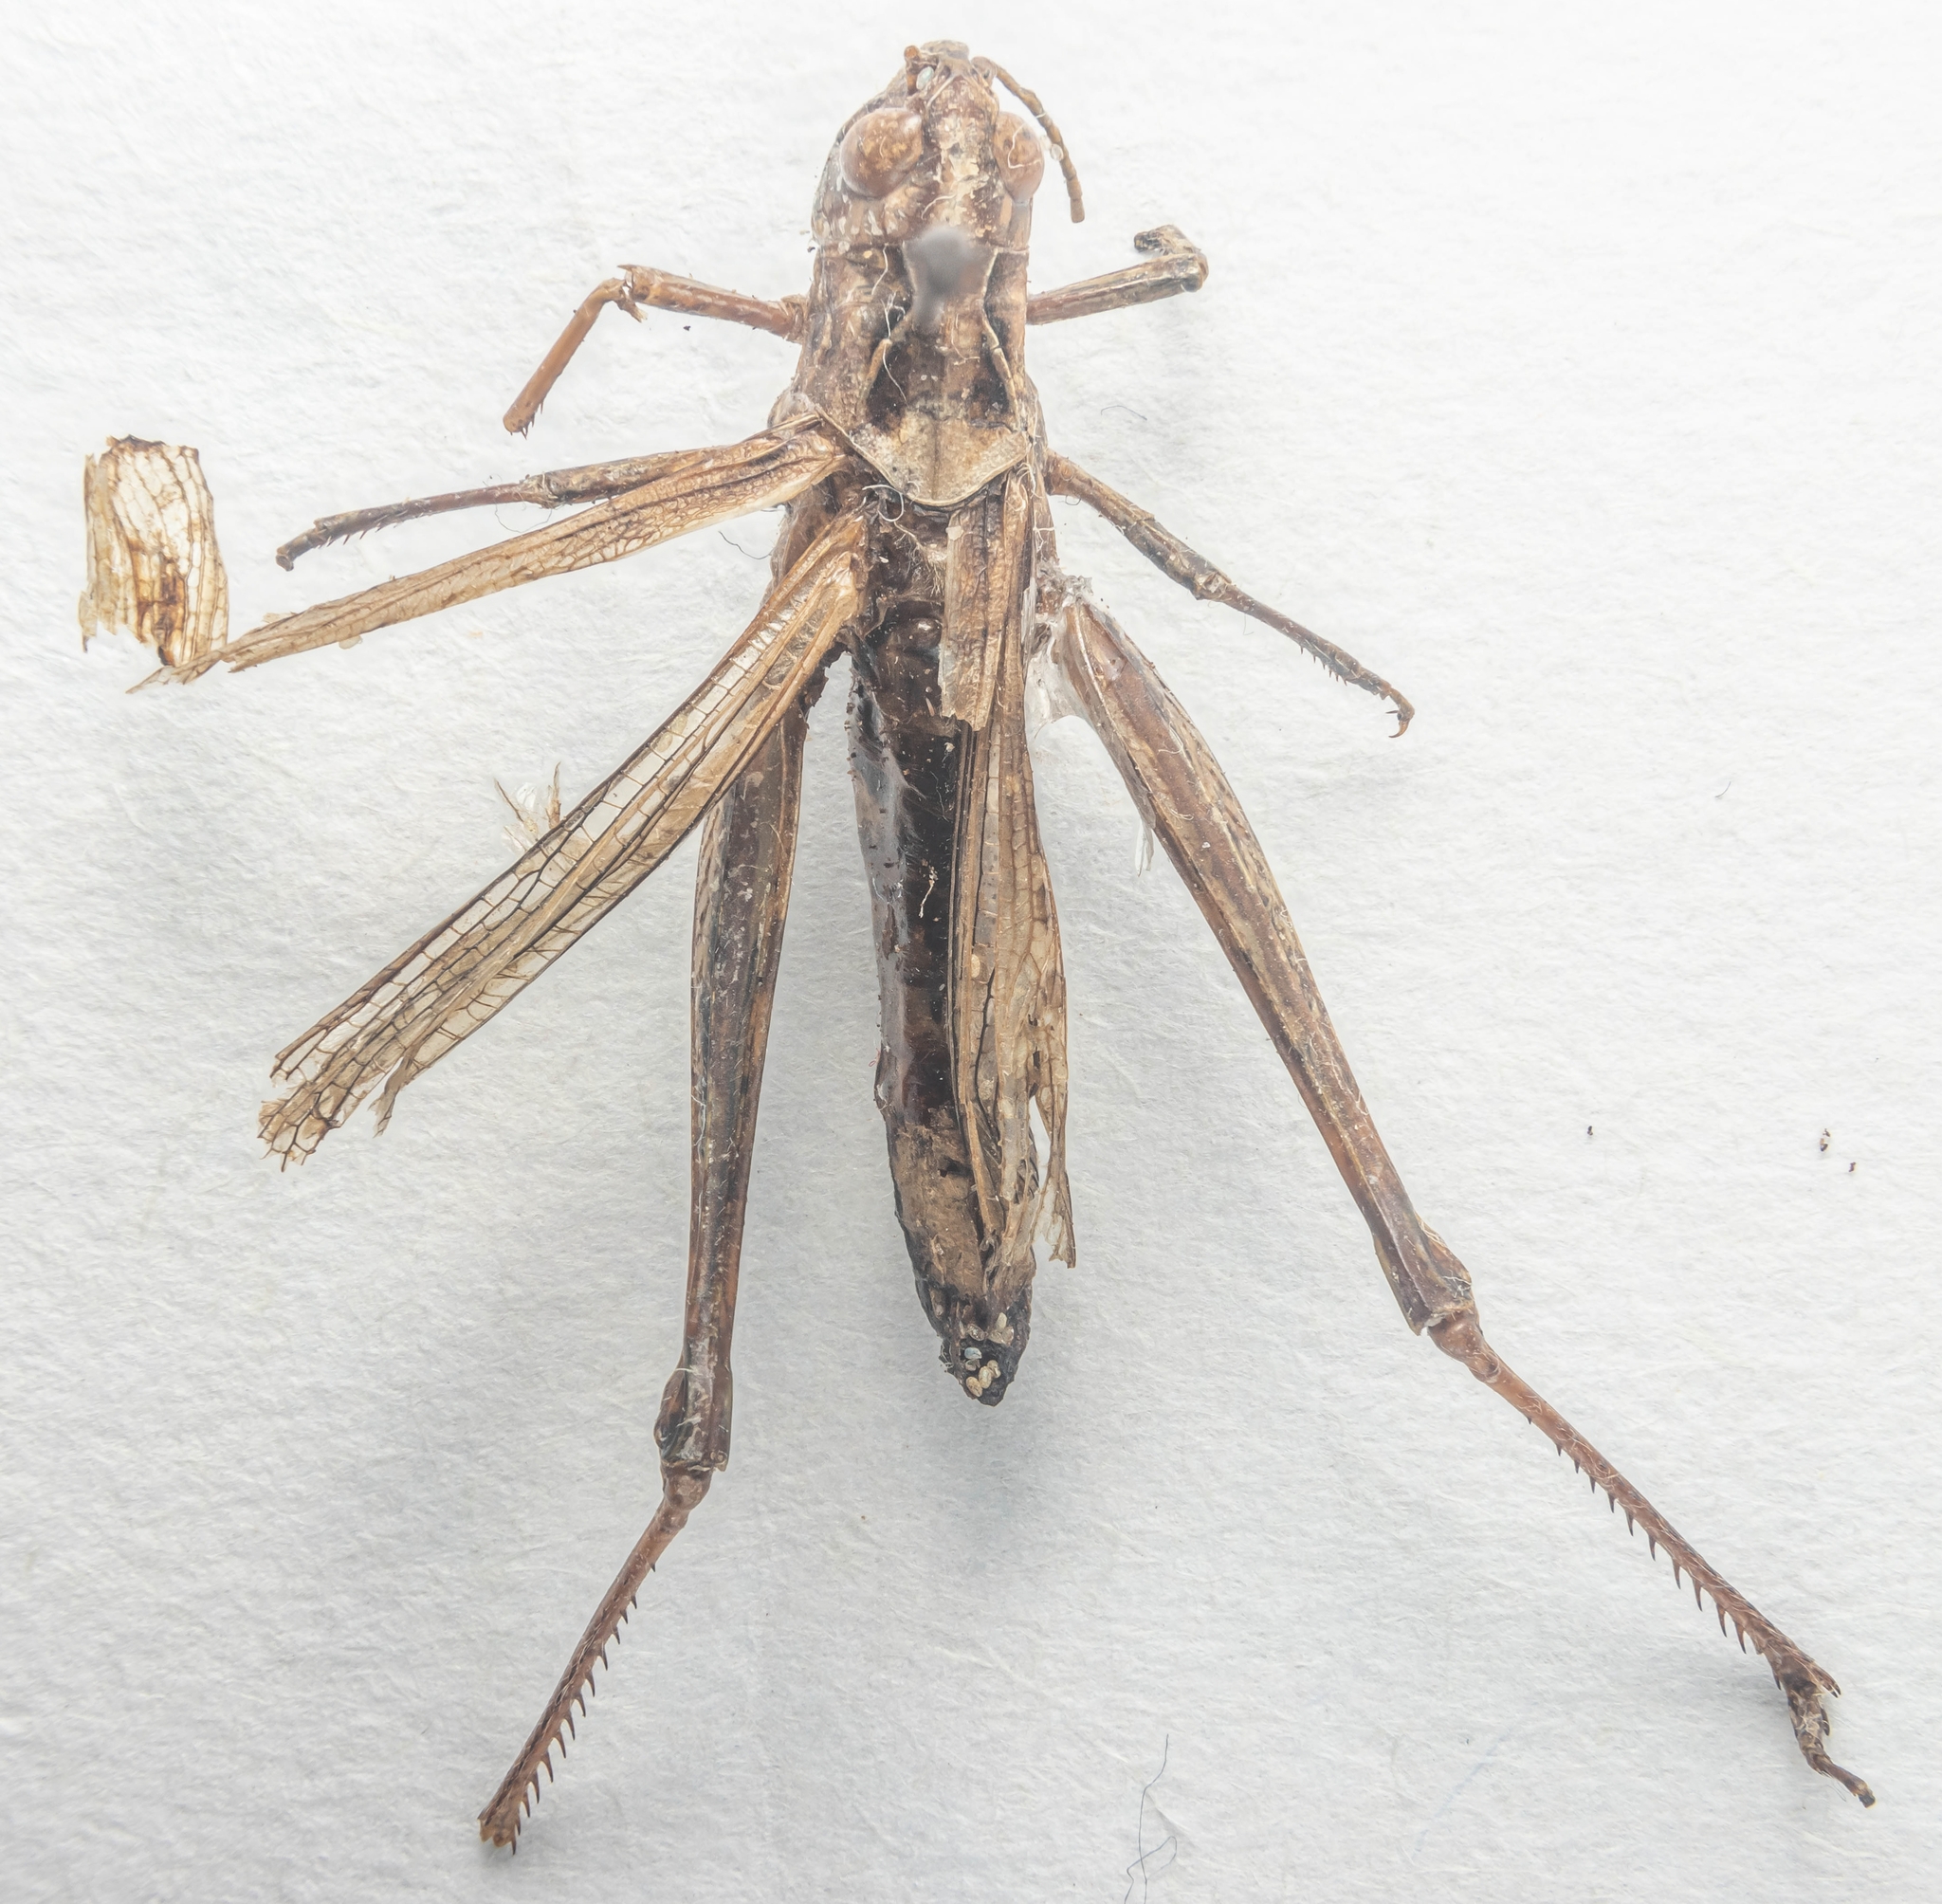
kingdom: Animalia
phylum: Arthropoda
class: Insecta
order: Orthoptera
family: Acrididae
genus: Chorthippus
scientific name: Chorthippus brunneus
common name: Field grasshopper
